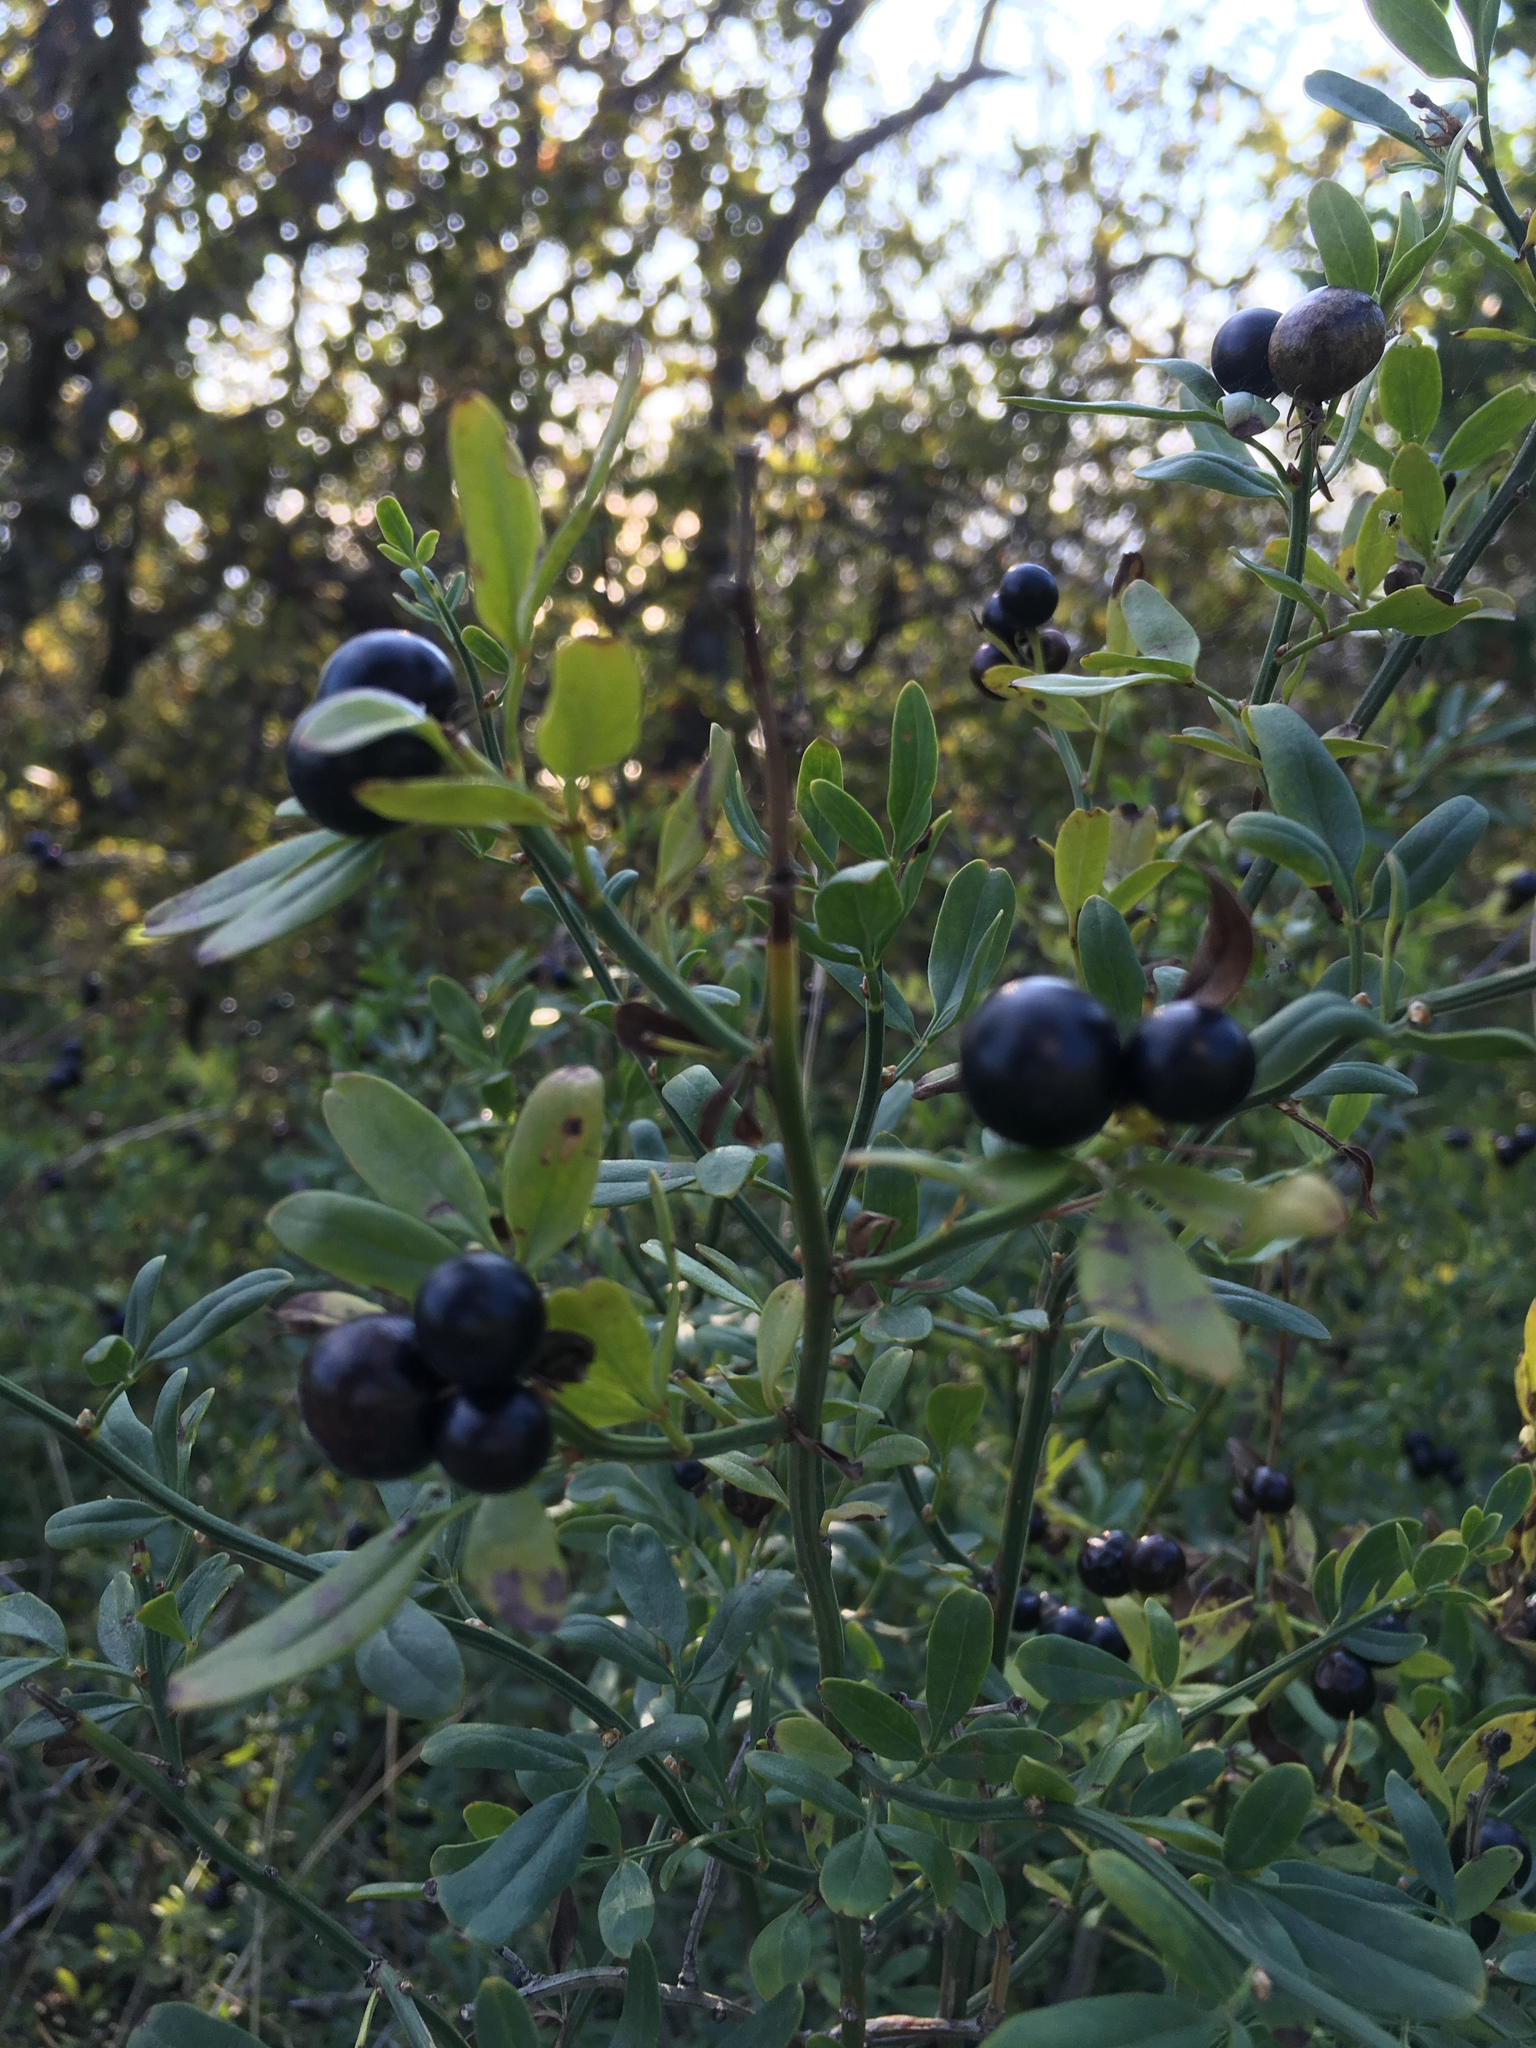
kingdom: Plantae
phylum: Tracheophyta
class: Magnoliopsida
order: Lamiales
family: Oleaceae
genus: Chrysojasminum
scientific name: Chrysojasminum fruticans
